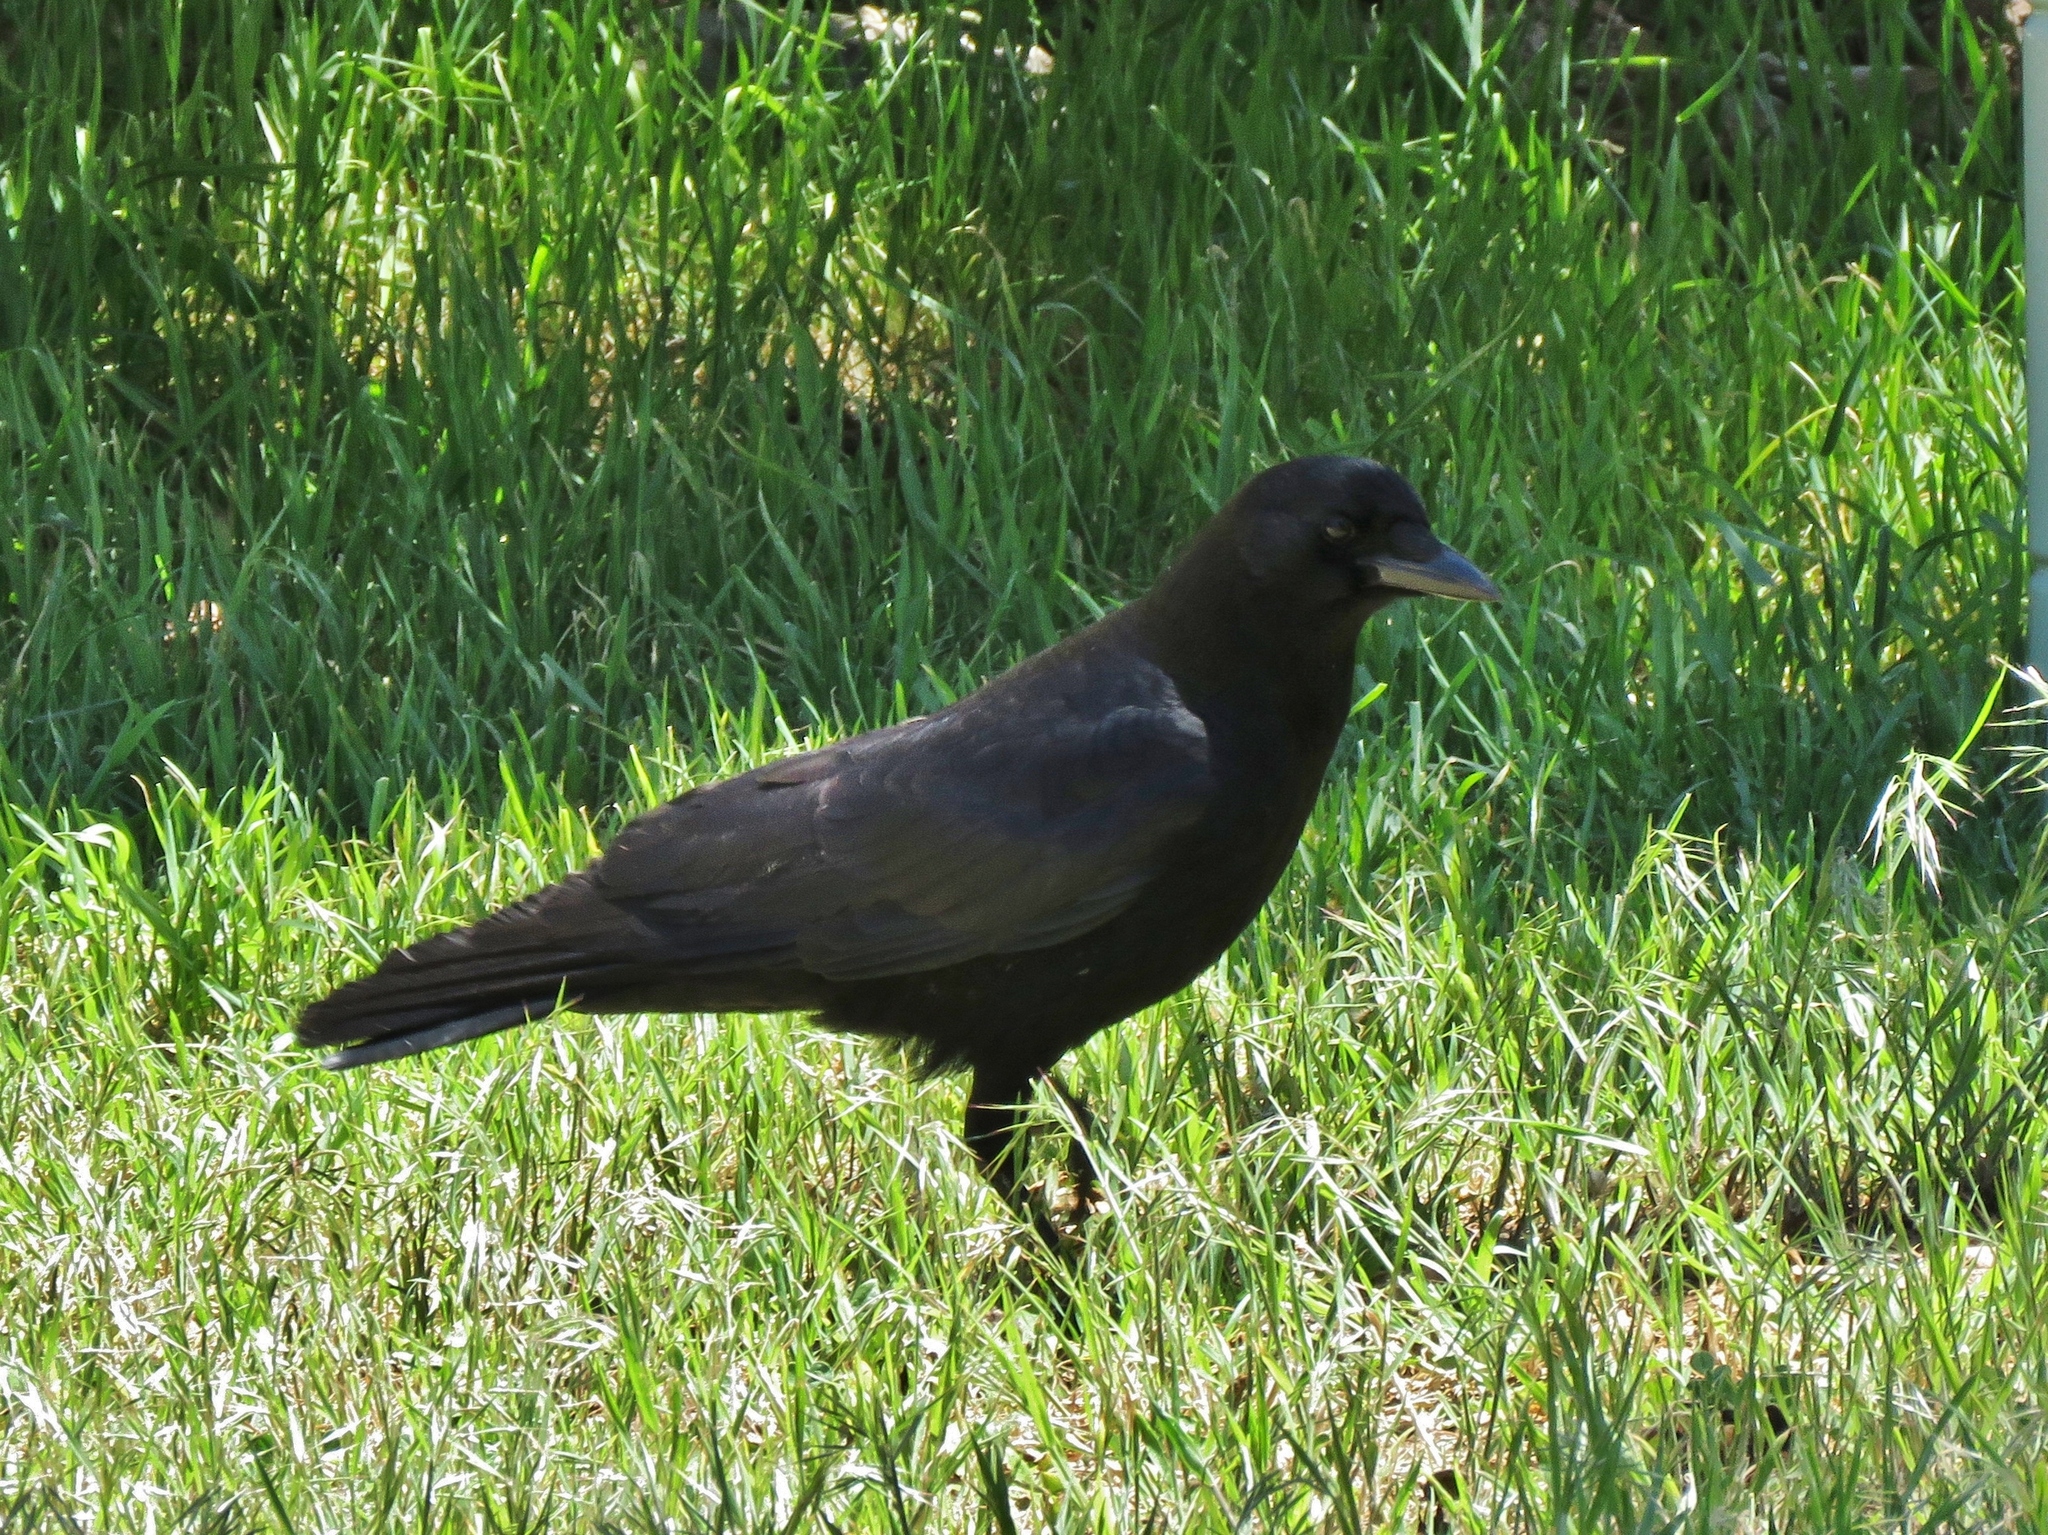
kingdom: Animalia
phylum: Chordata
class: Aves
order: Passeriformes
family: Corvidae
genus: Corvus
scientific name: Corvus brachyrhynchos
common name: American crow
